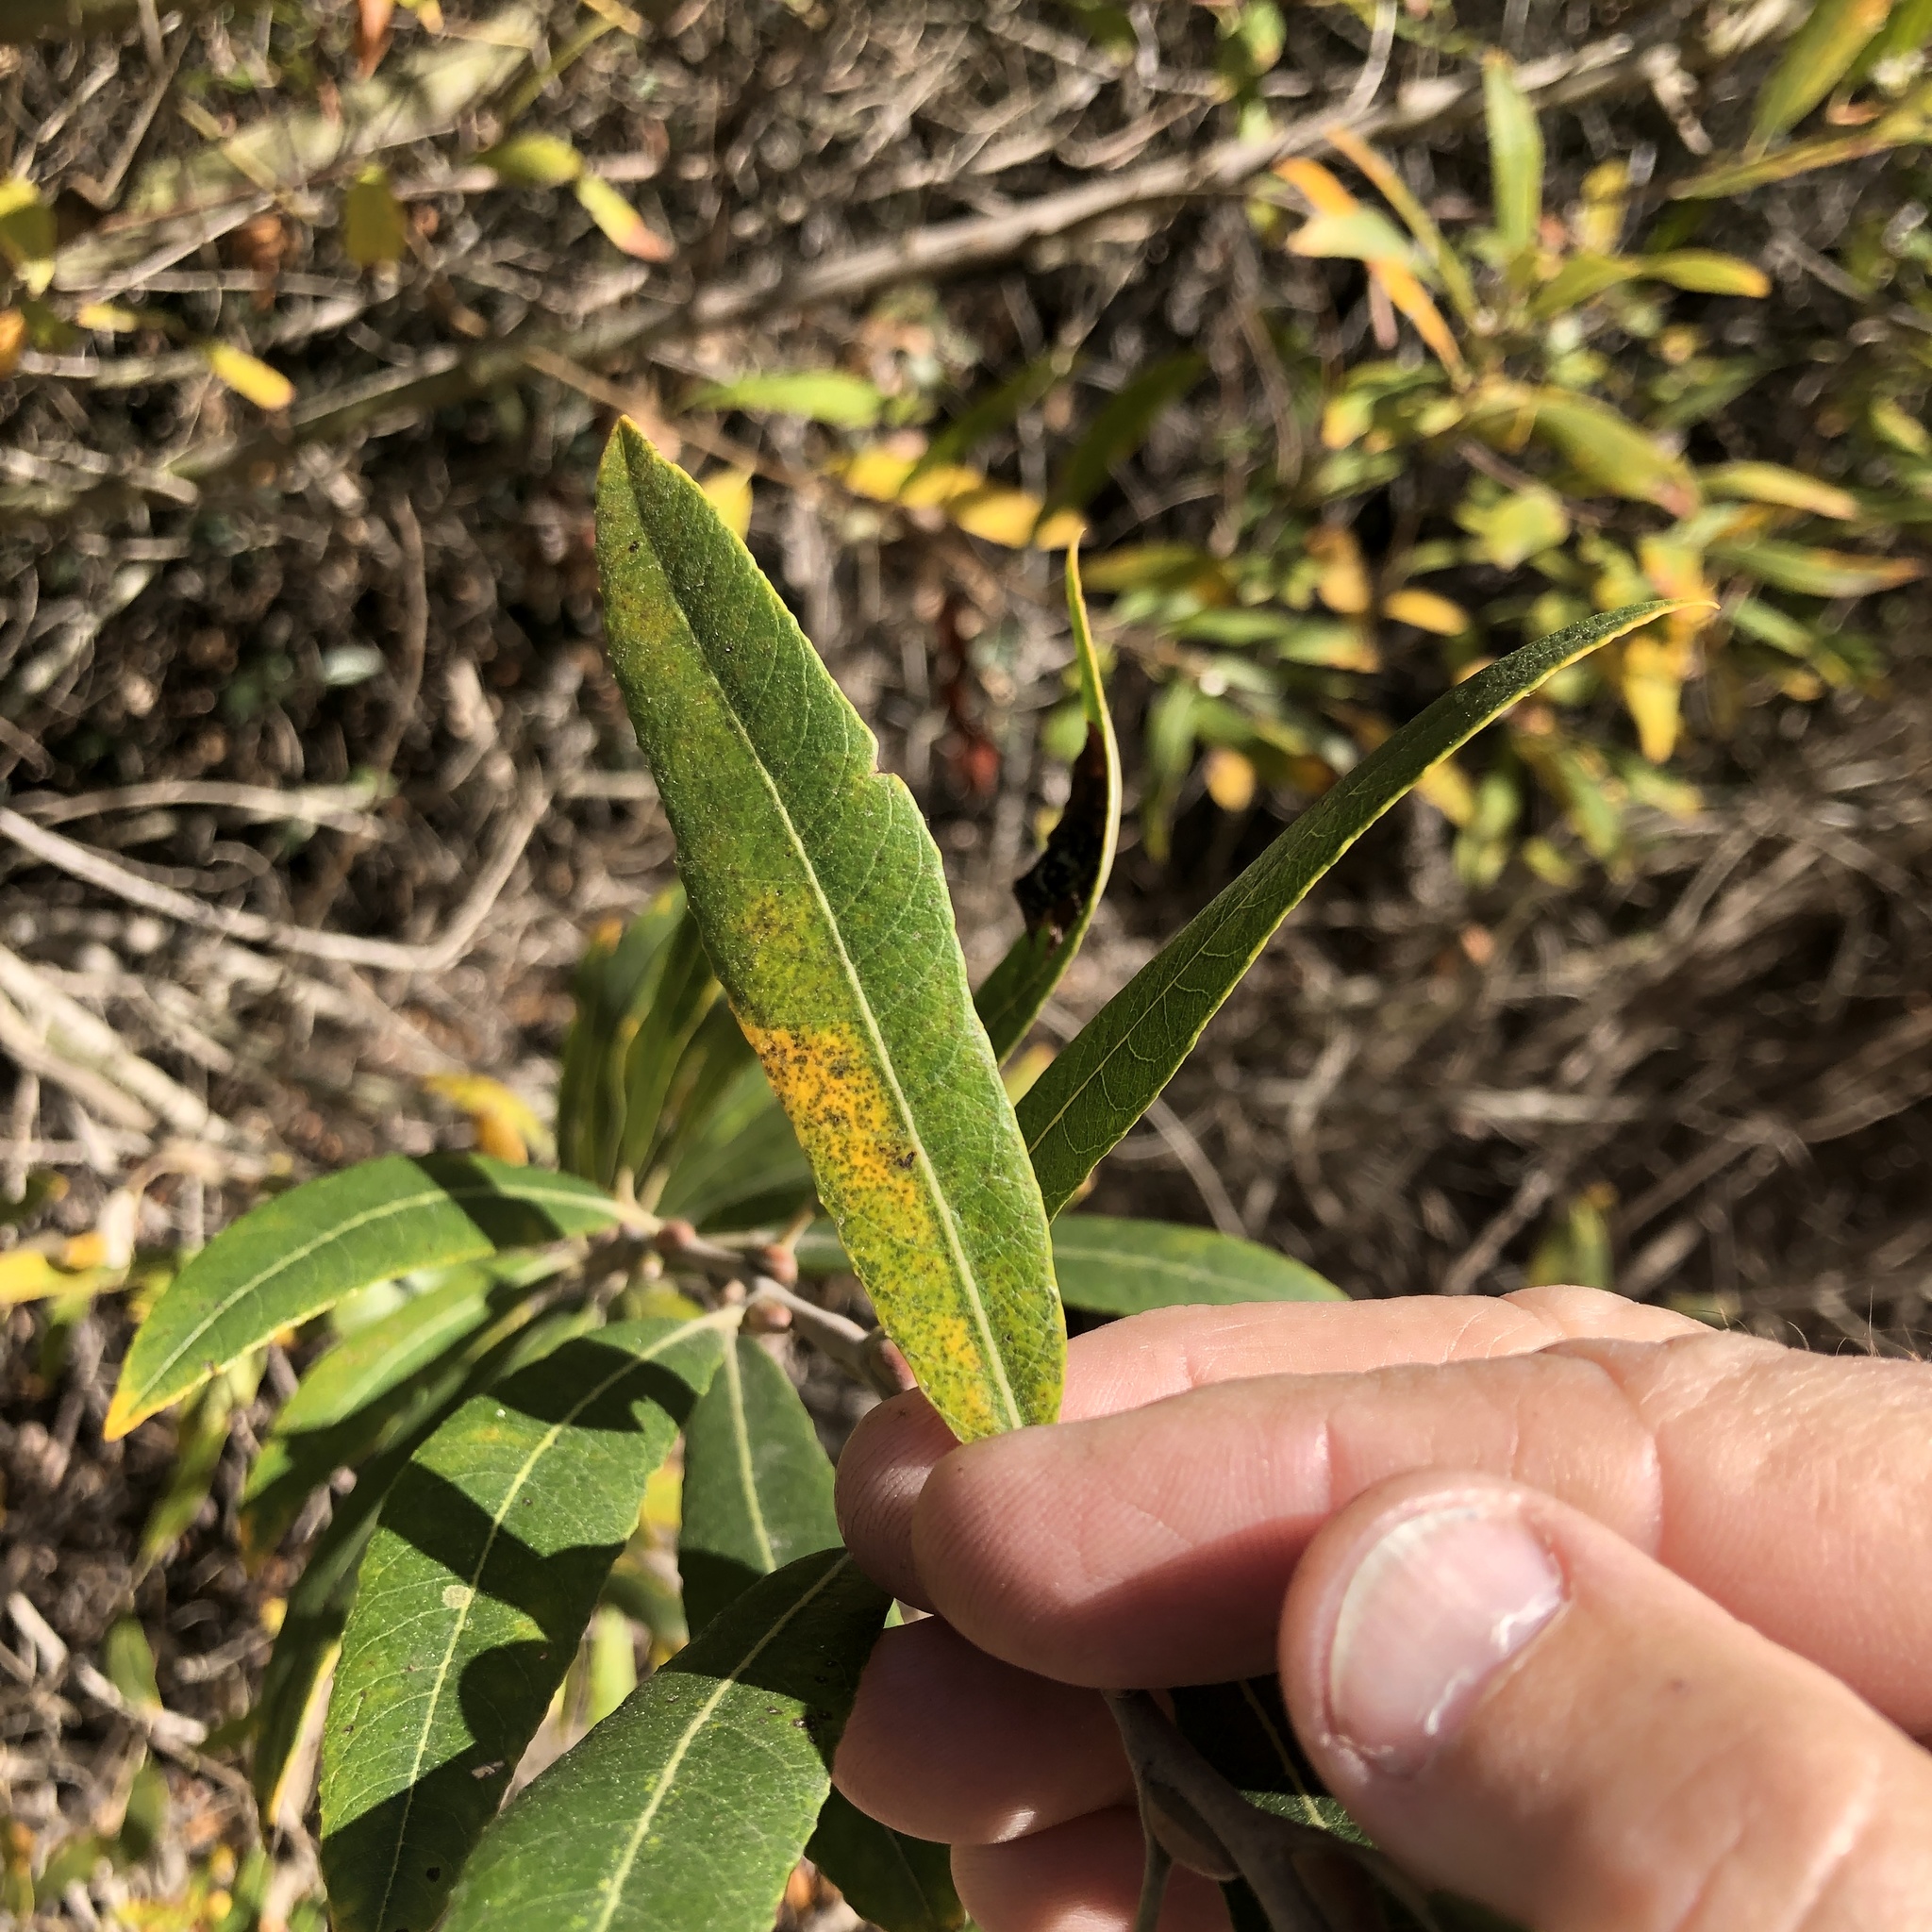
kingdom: Plantae
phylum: Tracheophyta
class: Magnoliopsida
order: Malpighiales
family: Salicaceae
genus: Salix
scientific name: Salix lasiolepis
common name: Arroyo willow
